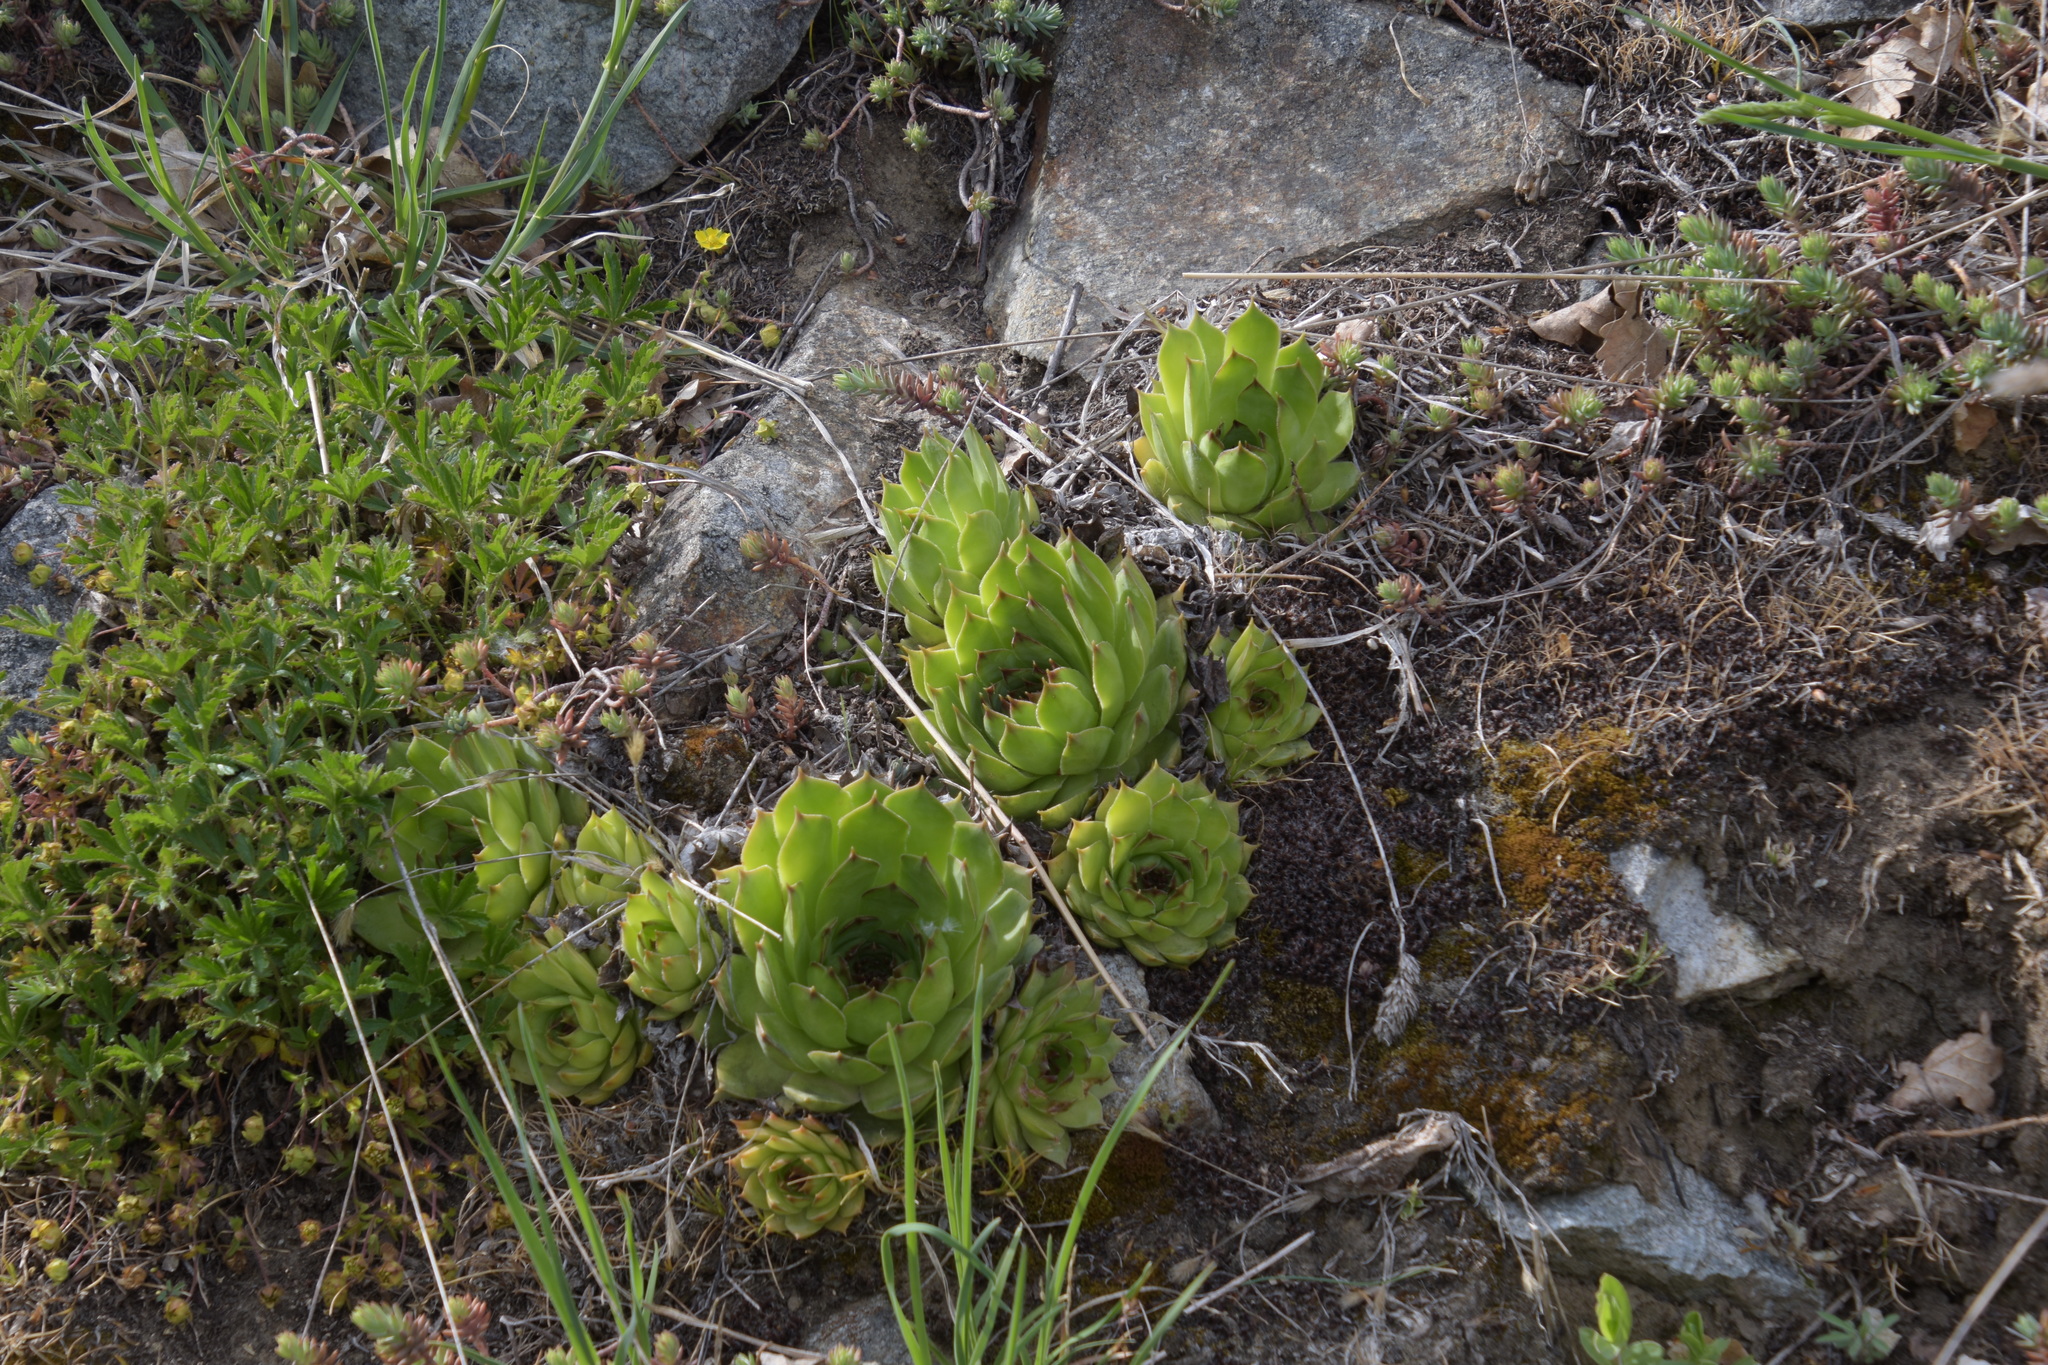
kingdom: Plantae
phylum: Tracheophyta
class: Magnoliopsida
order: Saxifragales
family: Crassulaceae
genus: Sempervivum
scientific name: Sempervivum tectorum
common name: House-leek
